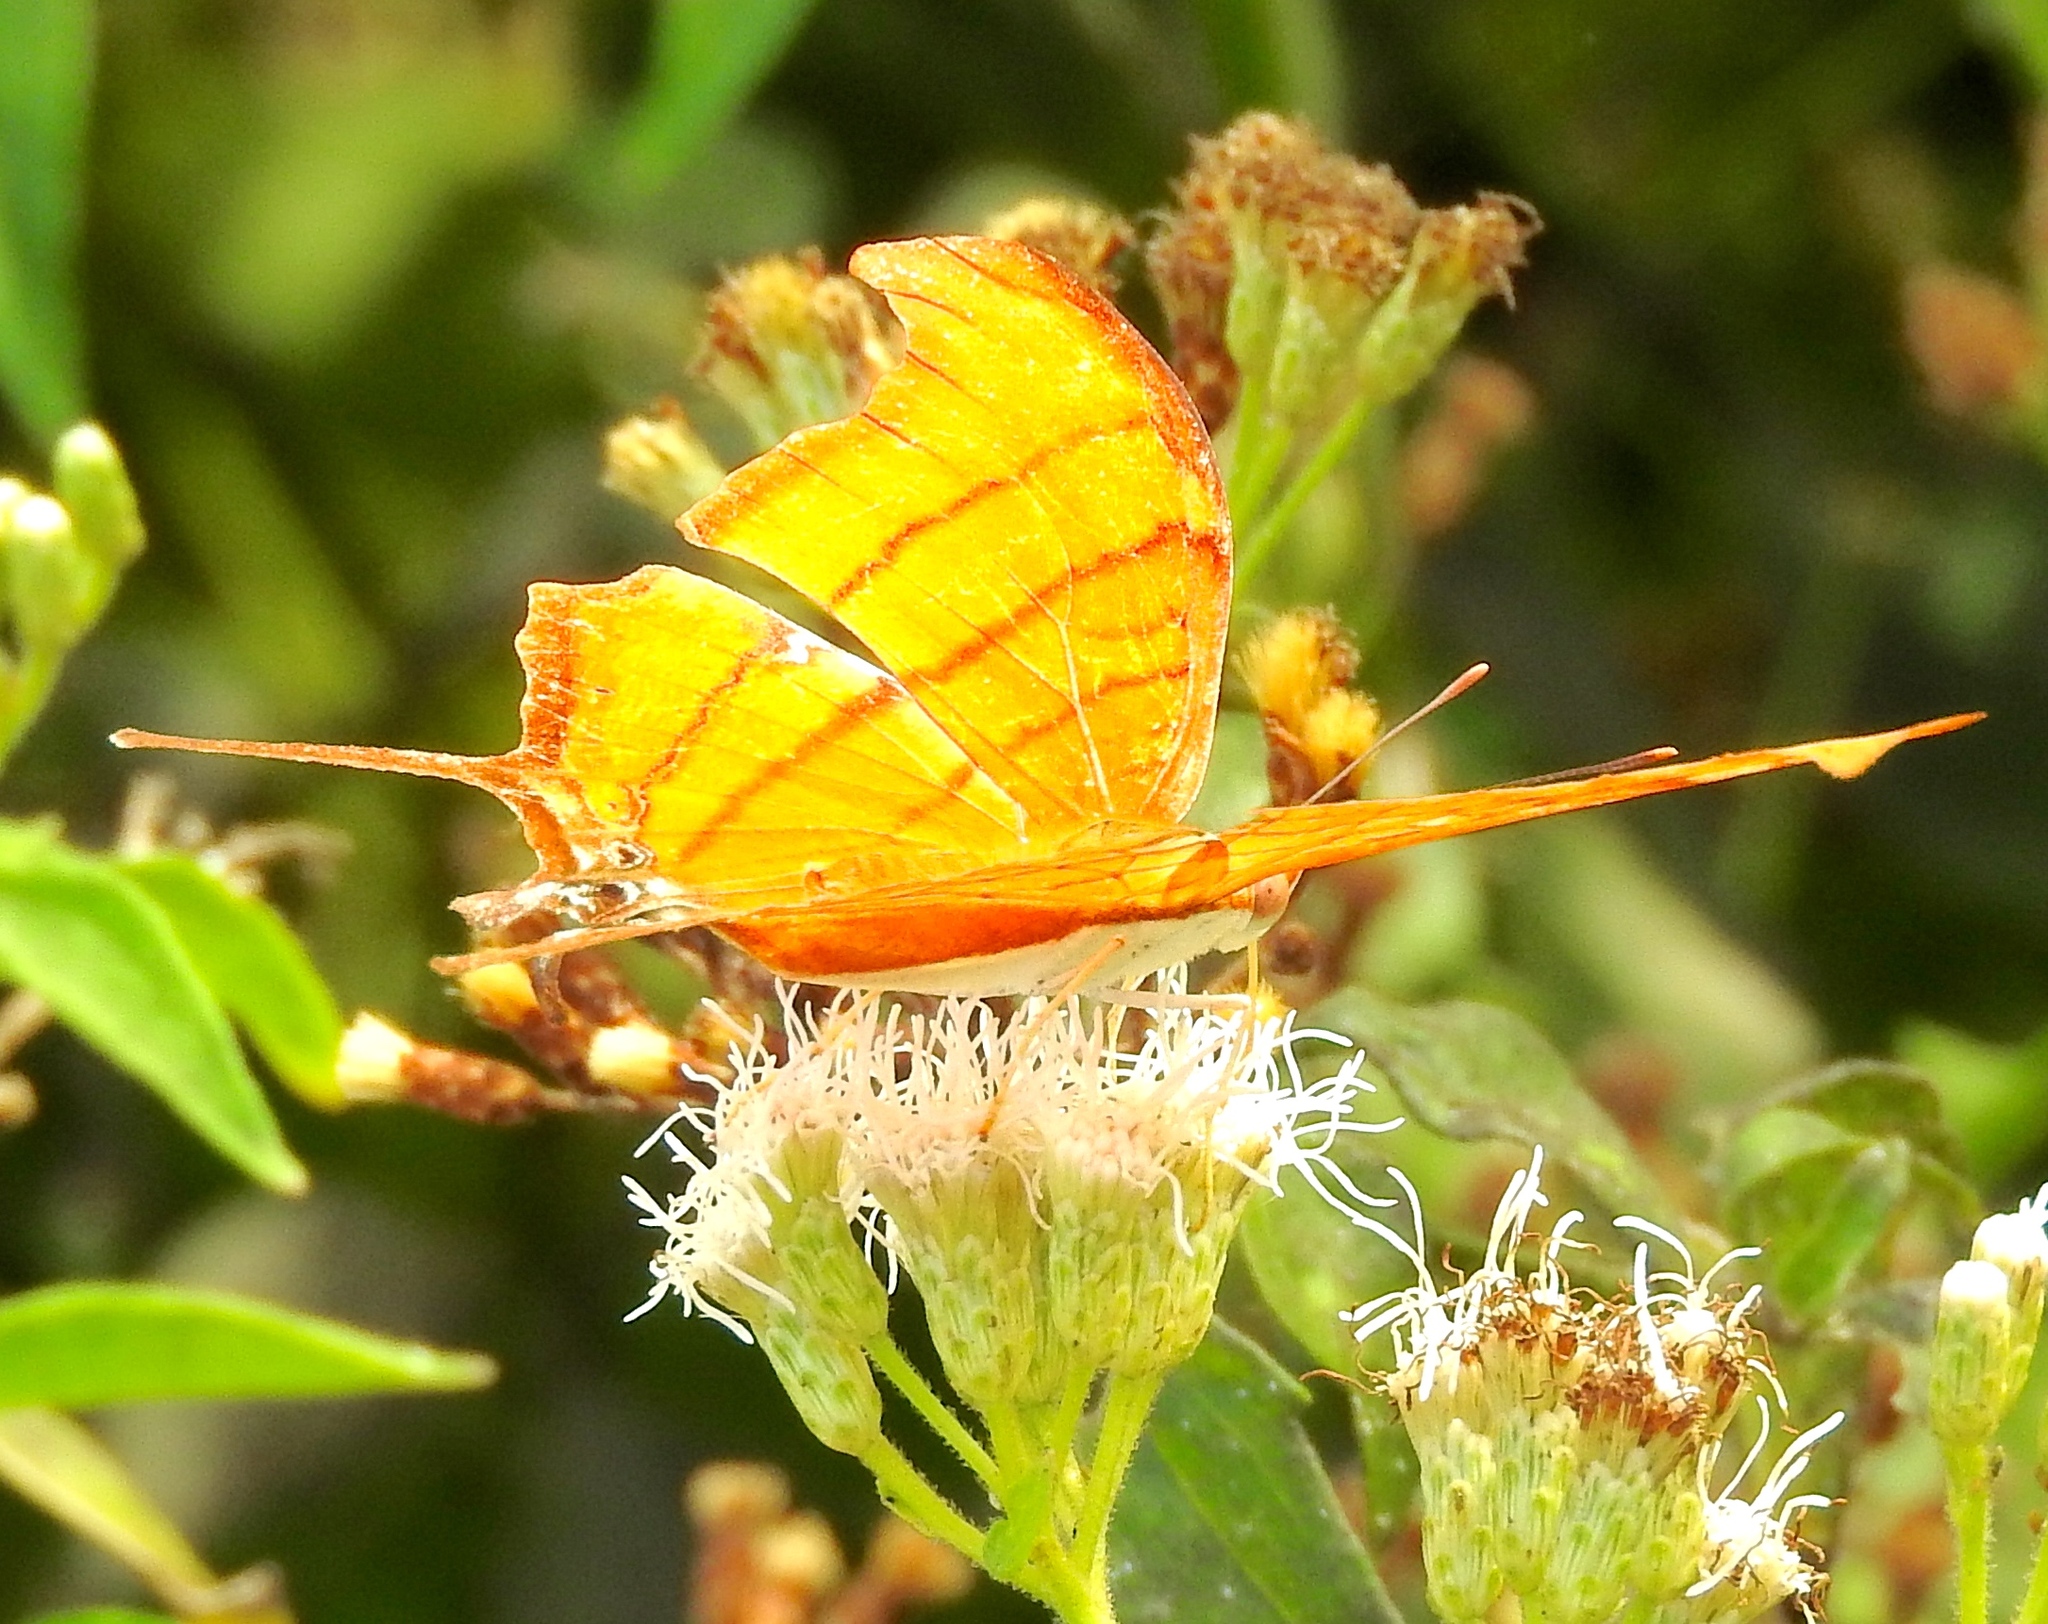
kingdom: Animalia
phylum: Arthropoda
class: Insecta
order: Lepidoptera
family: Nymphalidae
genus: Marpesia
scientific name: Marpesia petreus
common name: Red dagger wing
